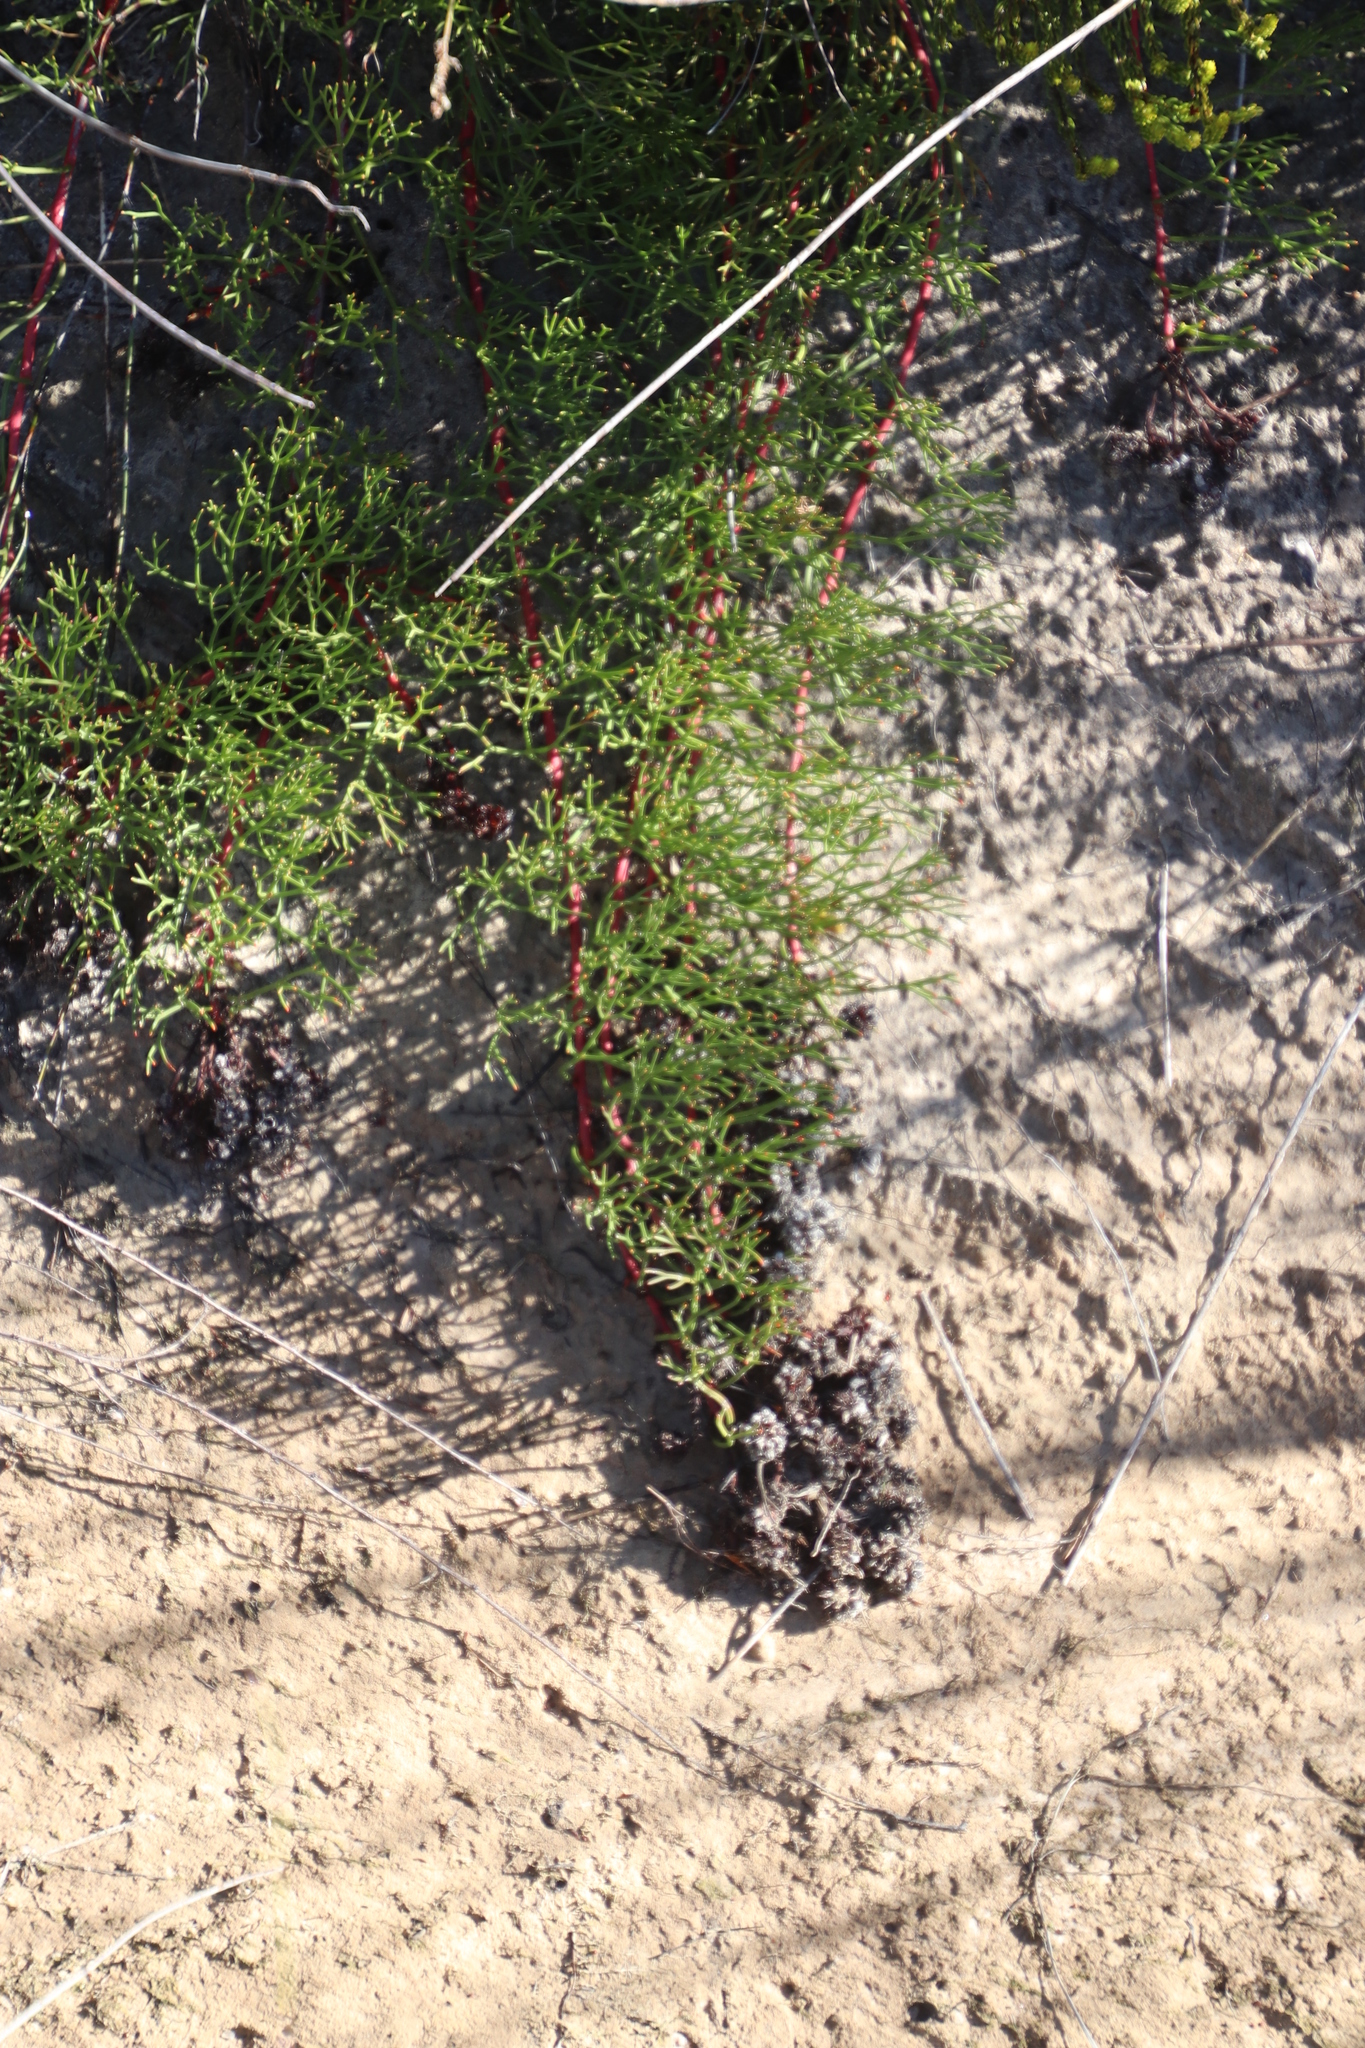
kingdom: Plantae
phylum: Tracheophyta
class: Magnoliopsida
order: Proteales
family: Proteaceae
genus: Serruria
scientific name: Serruria effusa
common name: Candelabra spiderhead
